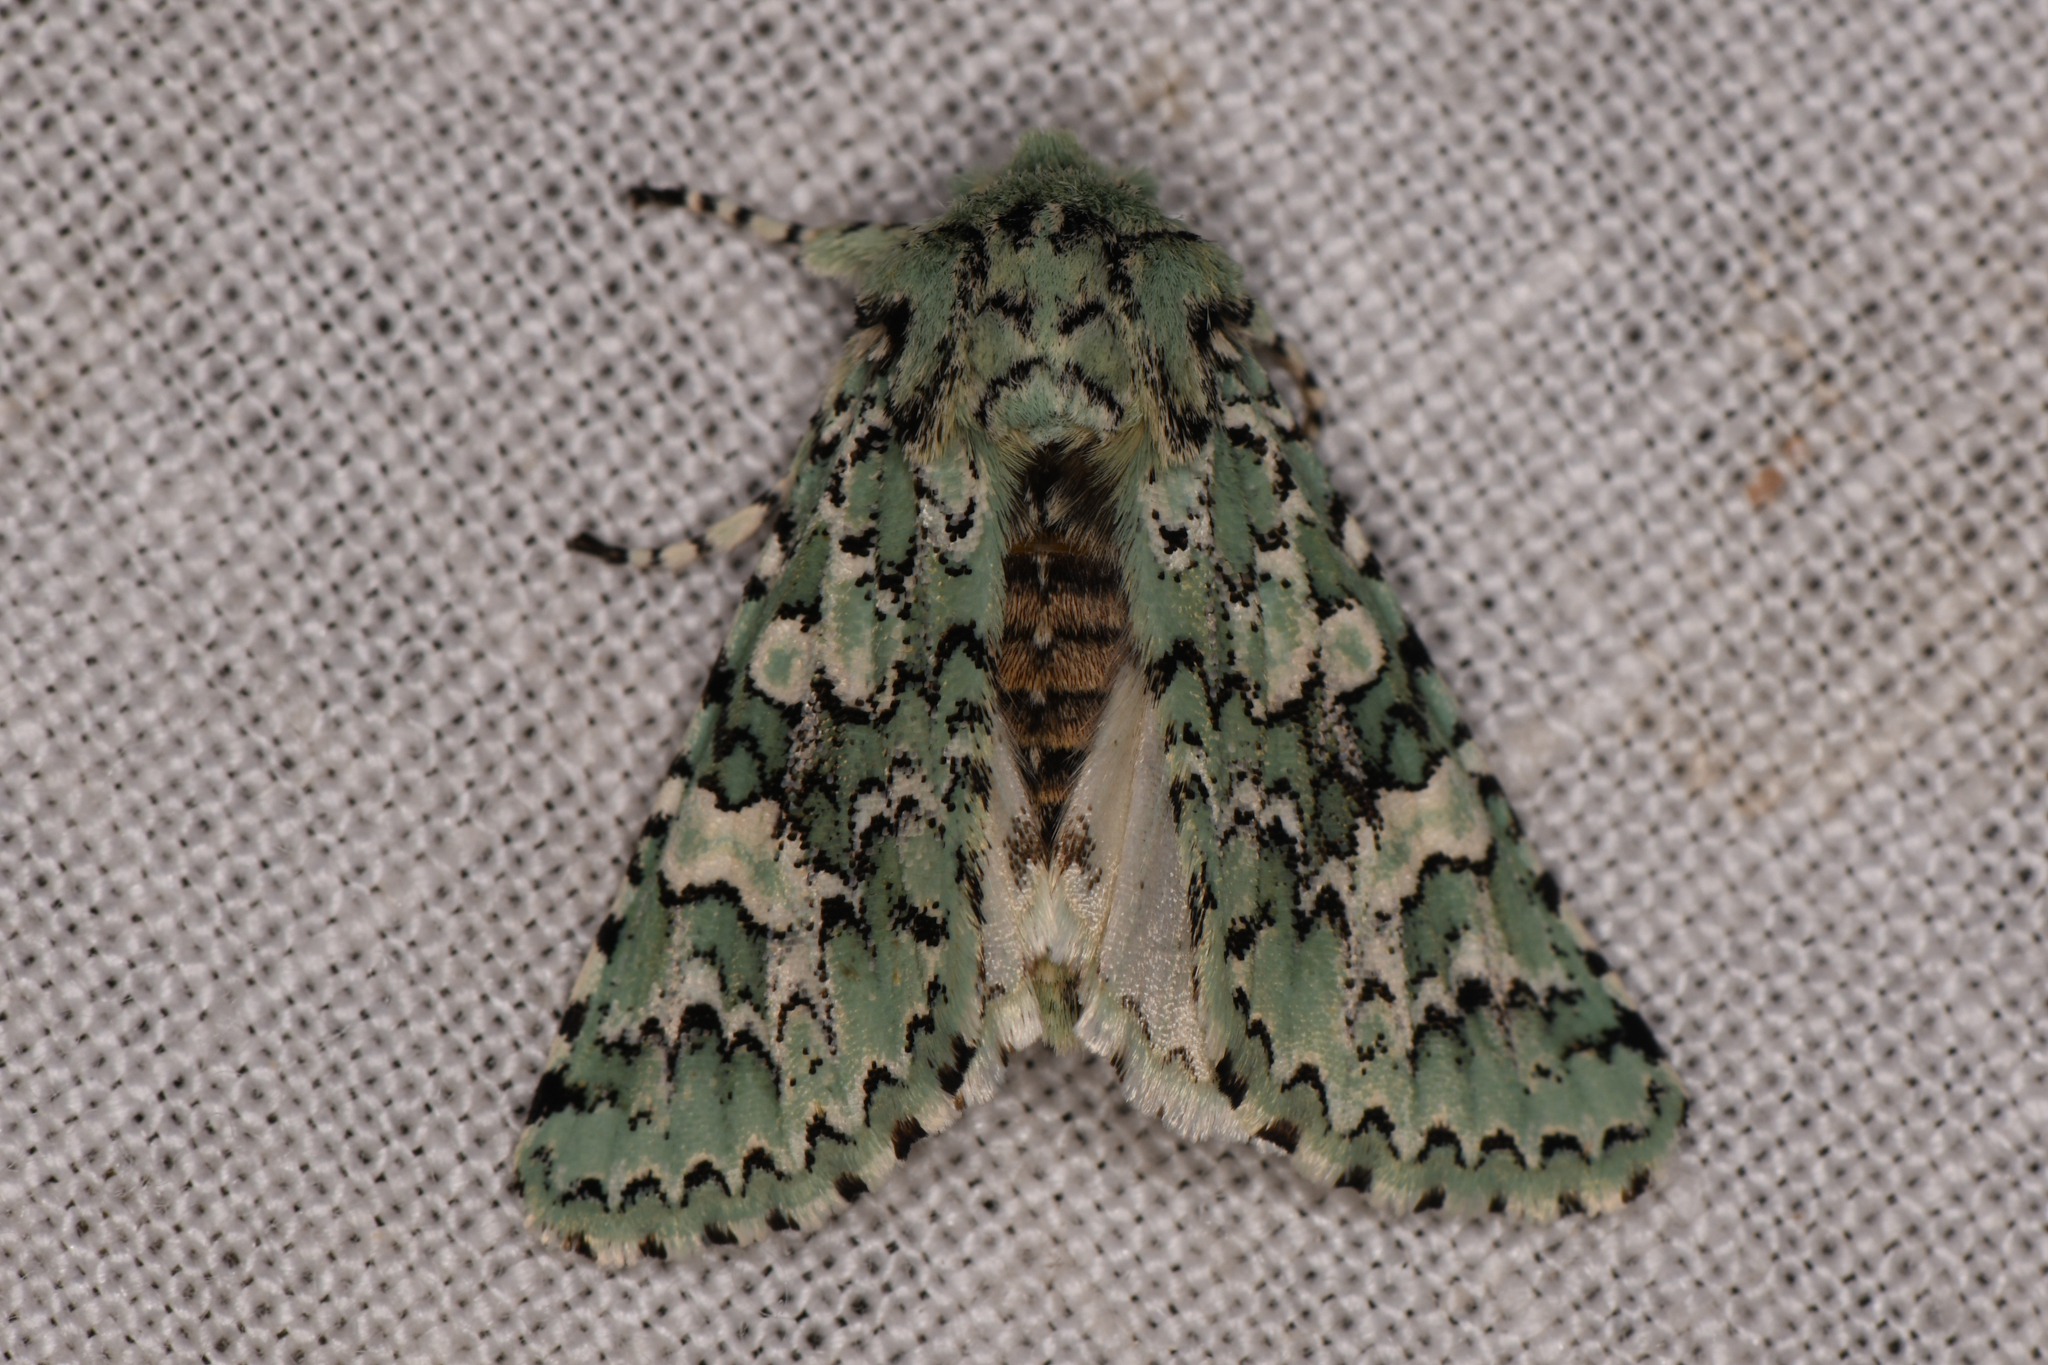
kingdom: Animalia
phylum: Arthropoda
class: Insecta
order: Lepidoptera
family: Noctuidae
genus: Feralia
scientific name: Feralia februalis
